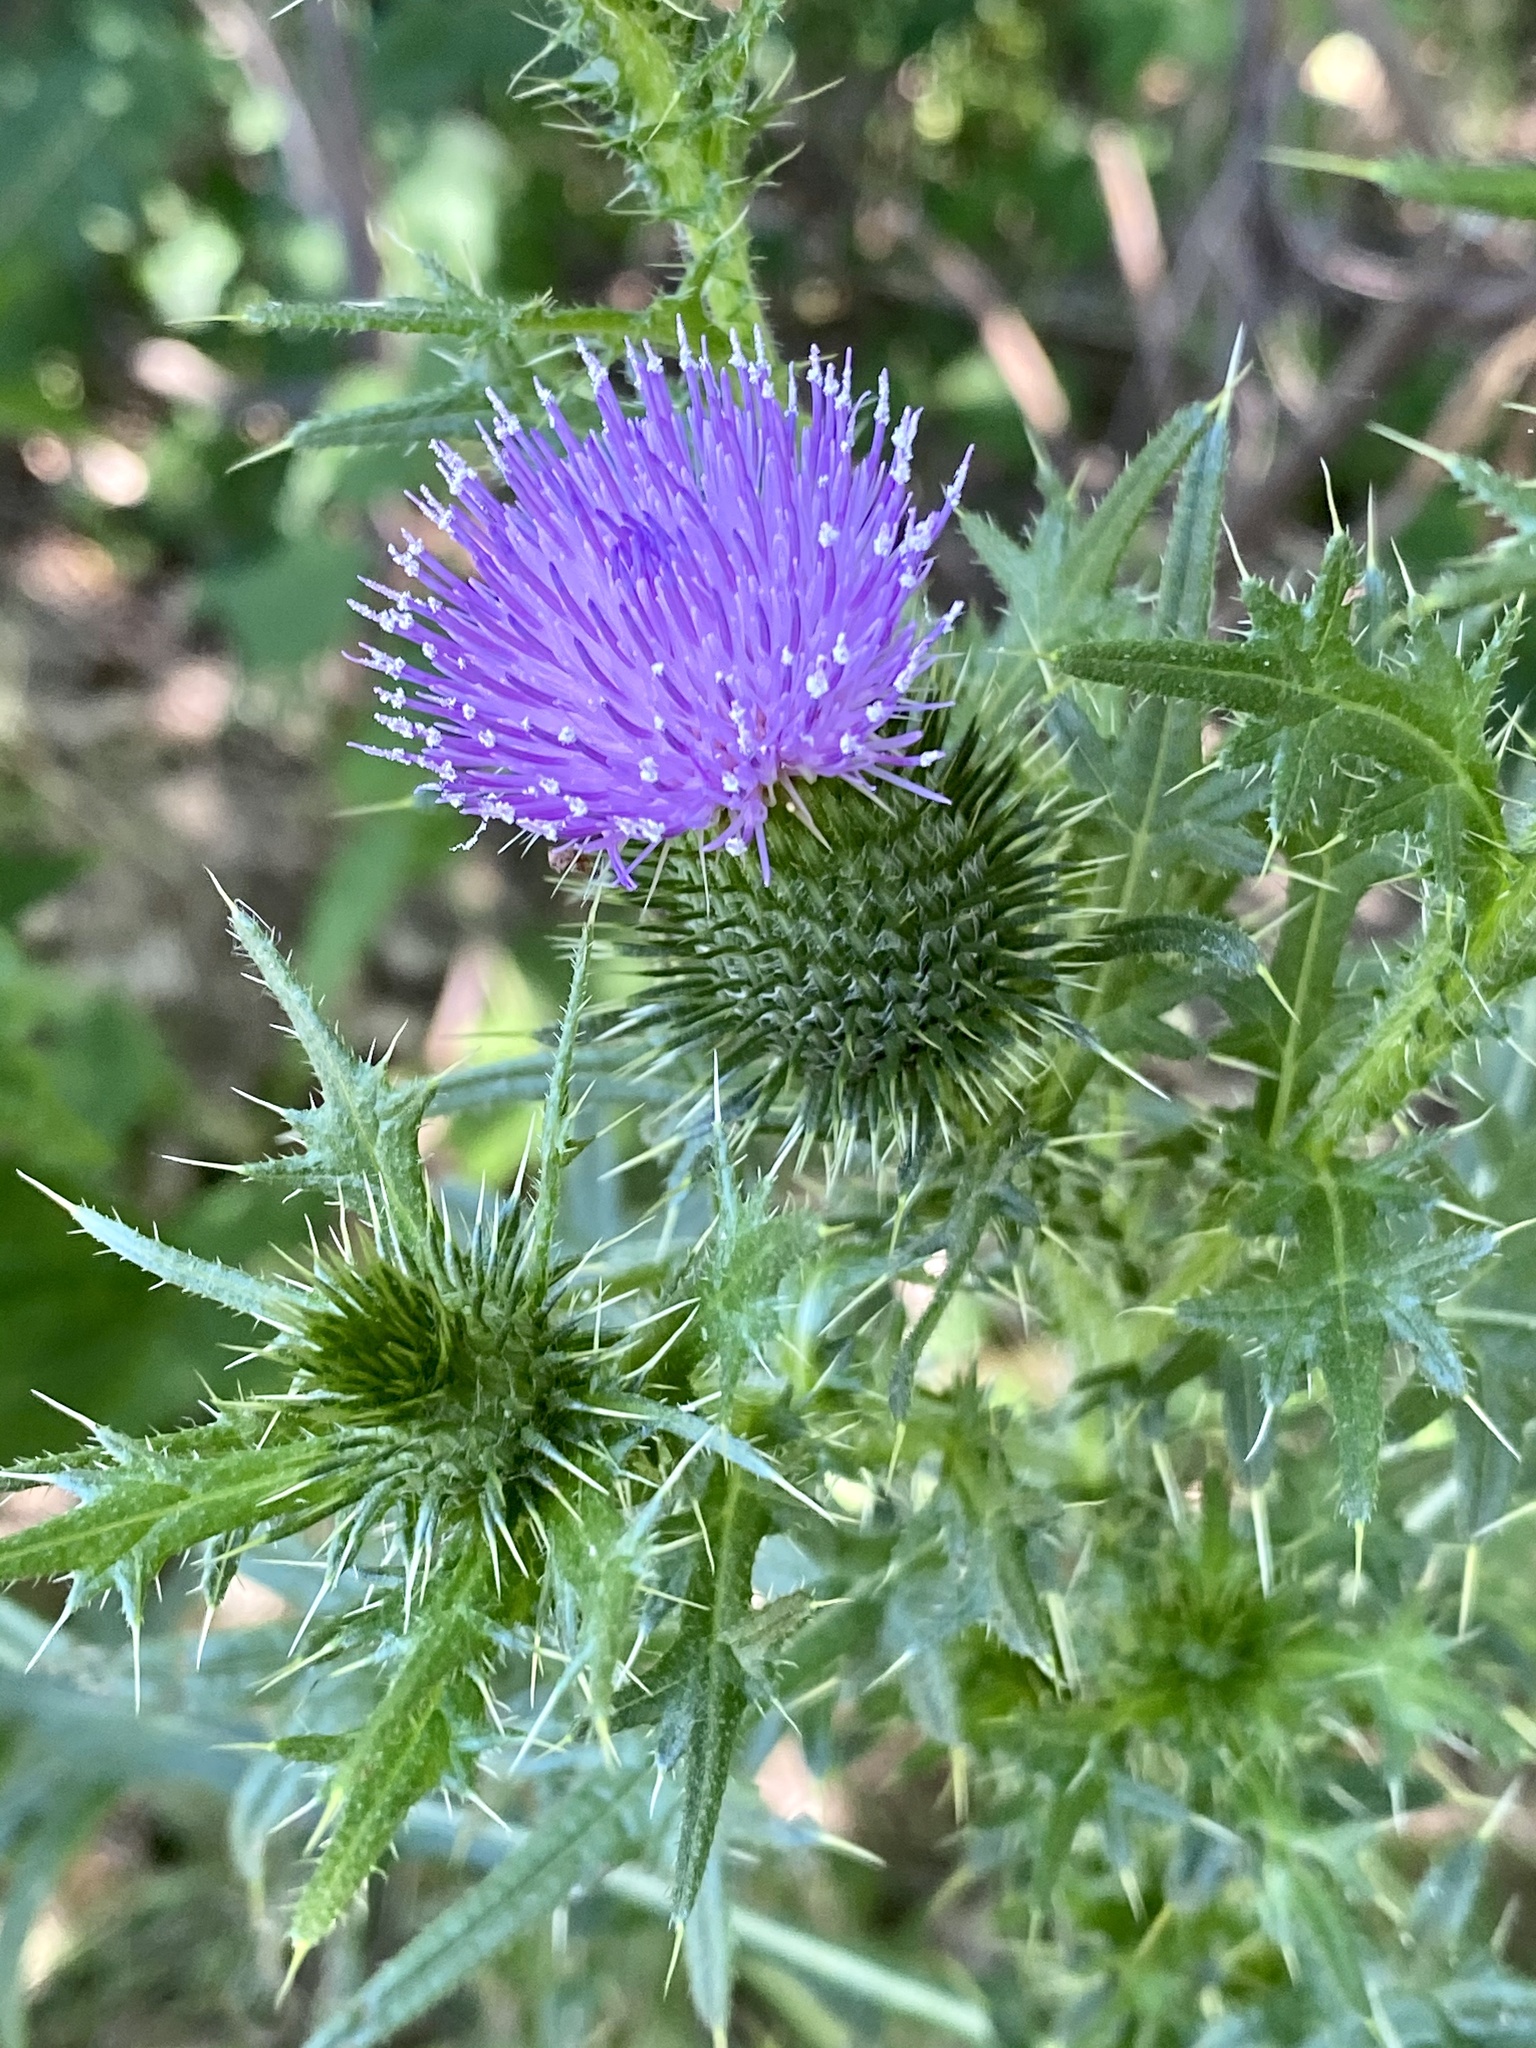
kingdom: Plantae
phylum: Tracheophyta
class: Magnoliopsida
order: Asterales
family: Asteraceae
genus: Cirsium
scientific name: Cirsium vulgare
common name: Bull thistle
